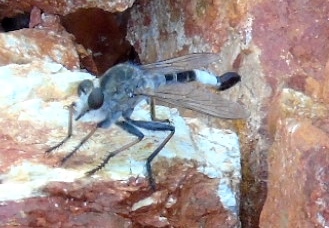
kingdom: Animalia
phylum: Arthropoda
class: Insecta
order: Diptera
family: Asilidae
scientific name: Asilidae
